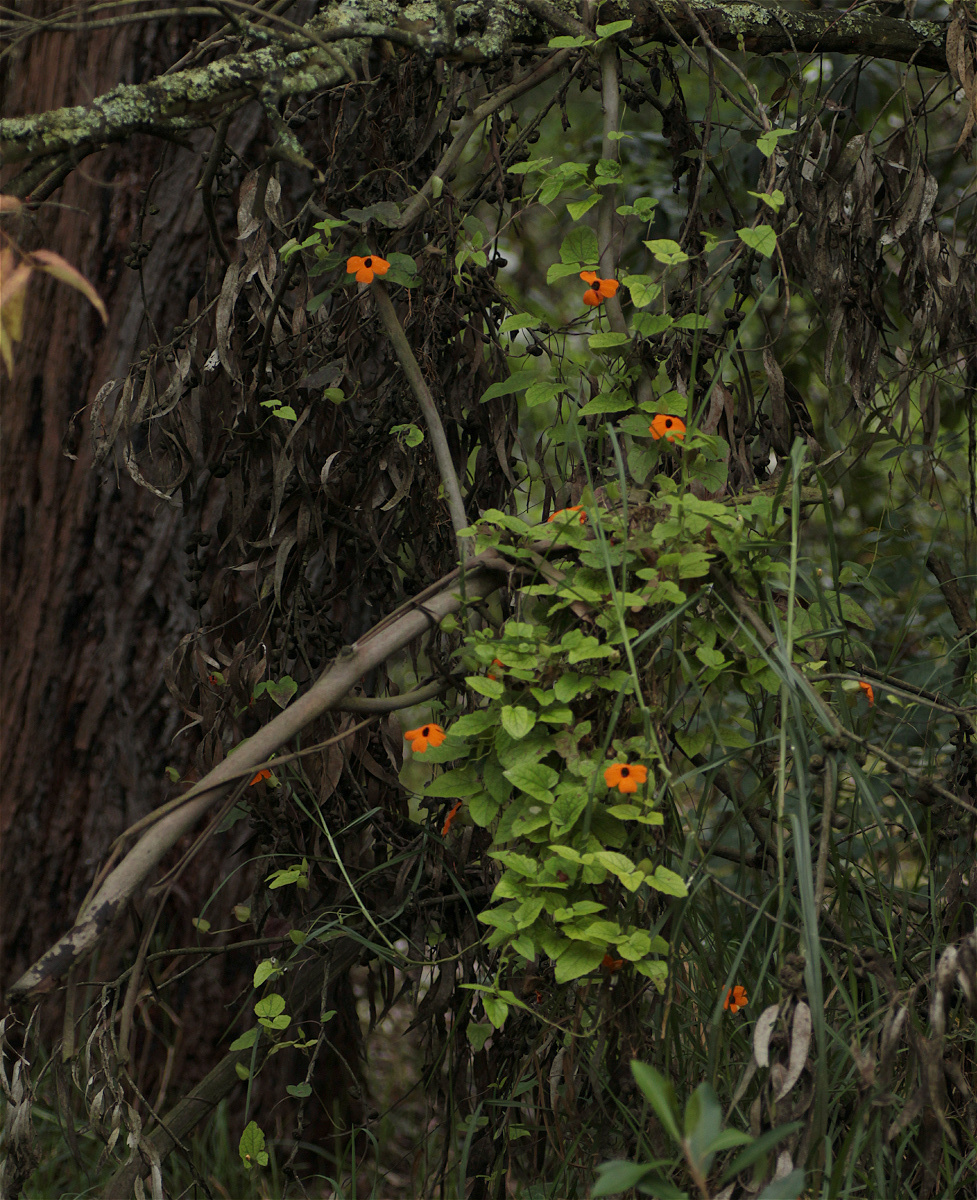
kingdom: Plantae
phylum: Tracheophyta
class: Magnoliopsida
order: Lamiales
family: Acanthaceae
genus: Thunbergia
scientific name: Thunbergia alata
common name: Blackeyed susan vine
